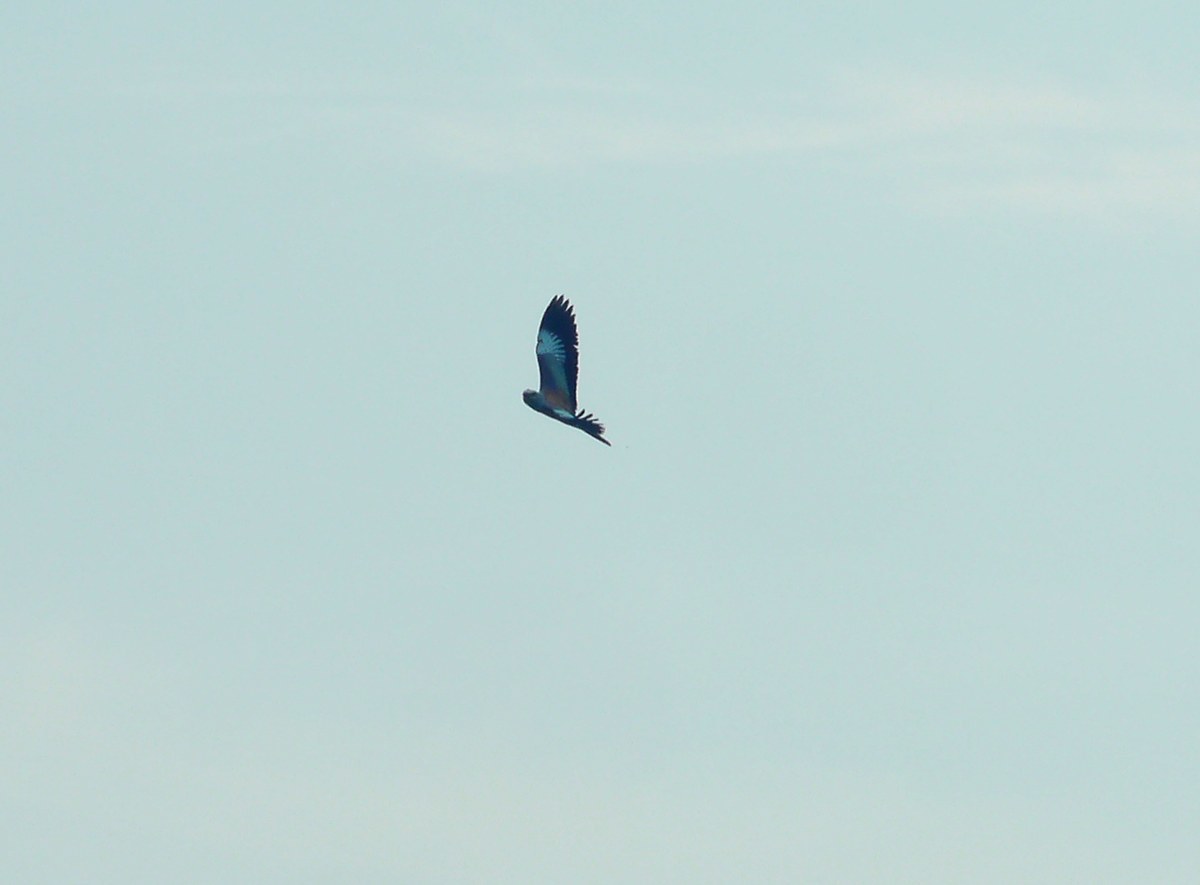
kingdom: Animalia
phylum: Chordata
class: Aves
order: Coraciiformes
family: Coraciidae
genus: Coracias
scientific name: Coracias garrulus
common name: European roller
